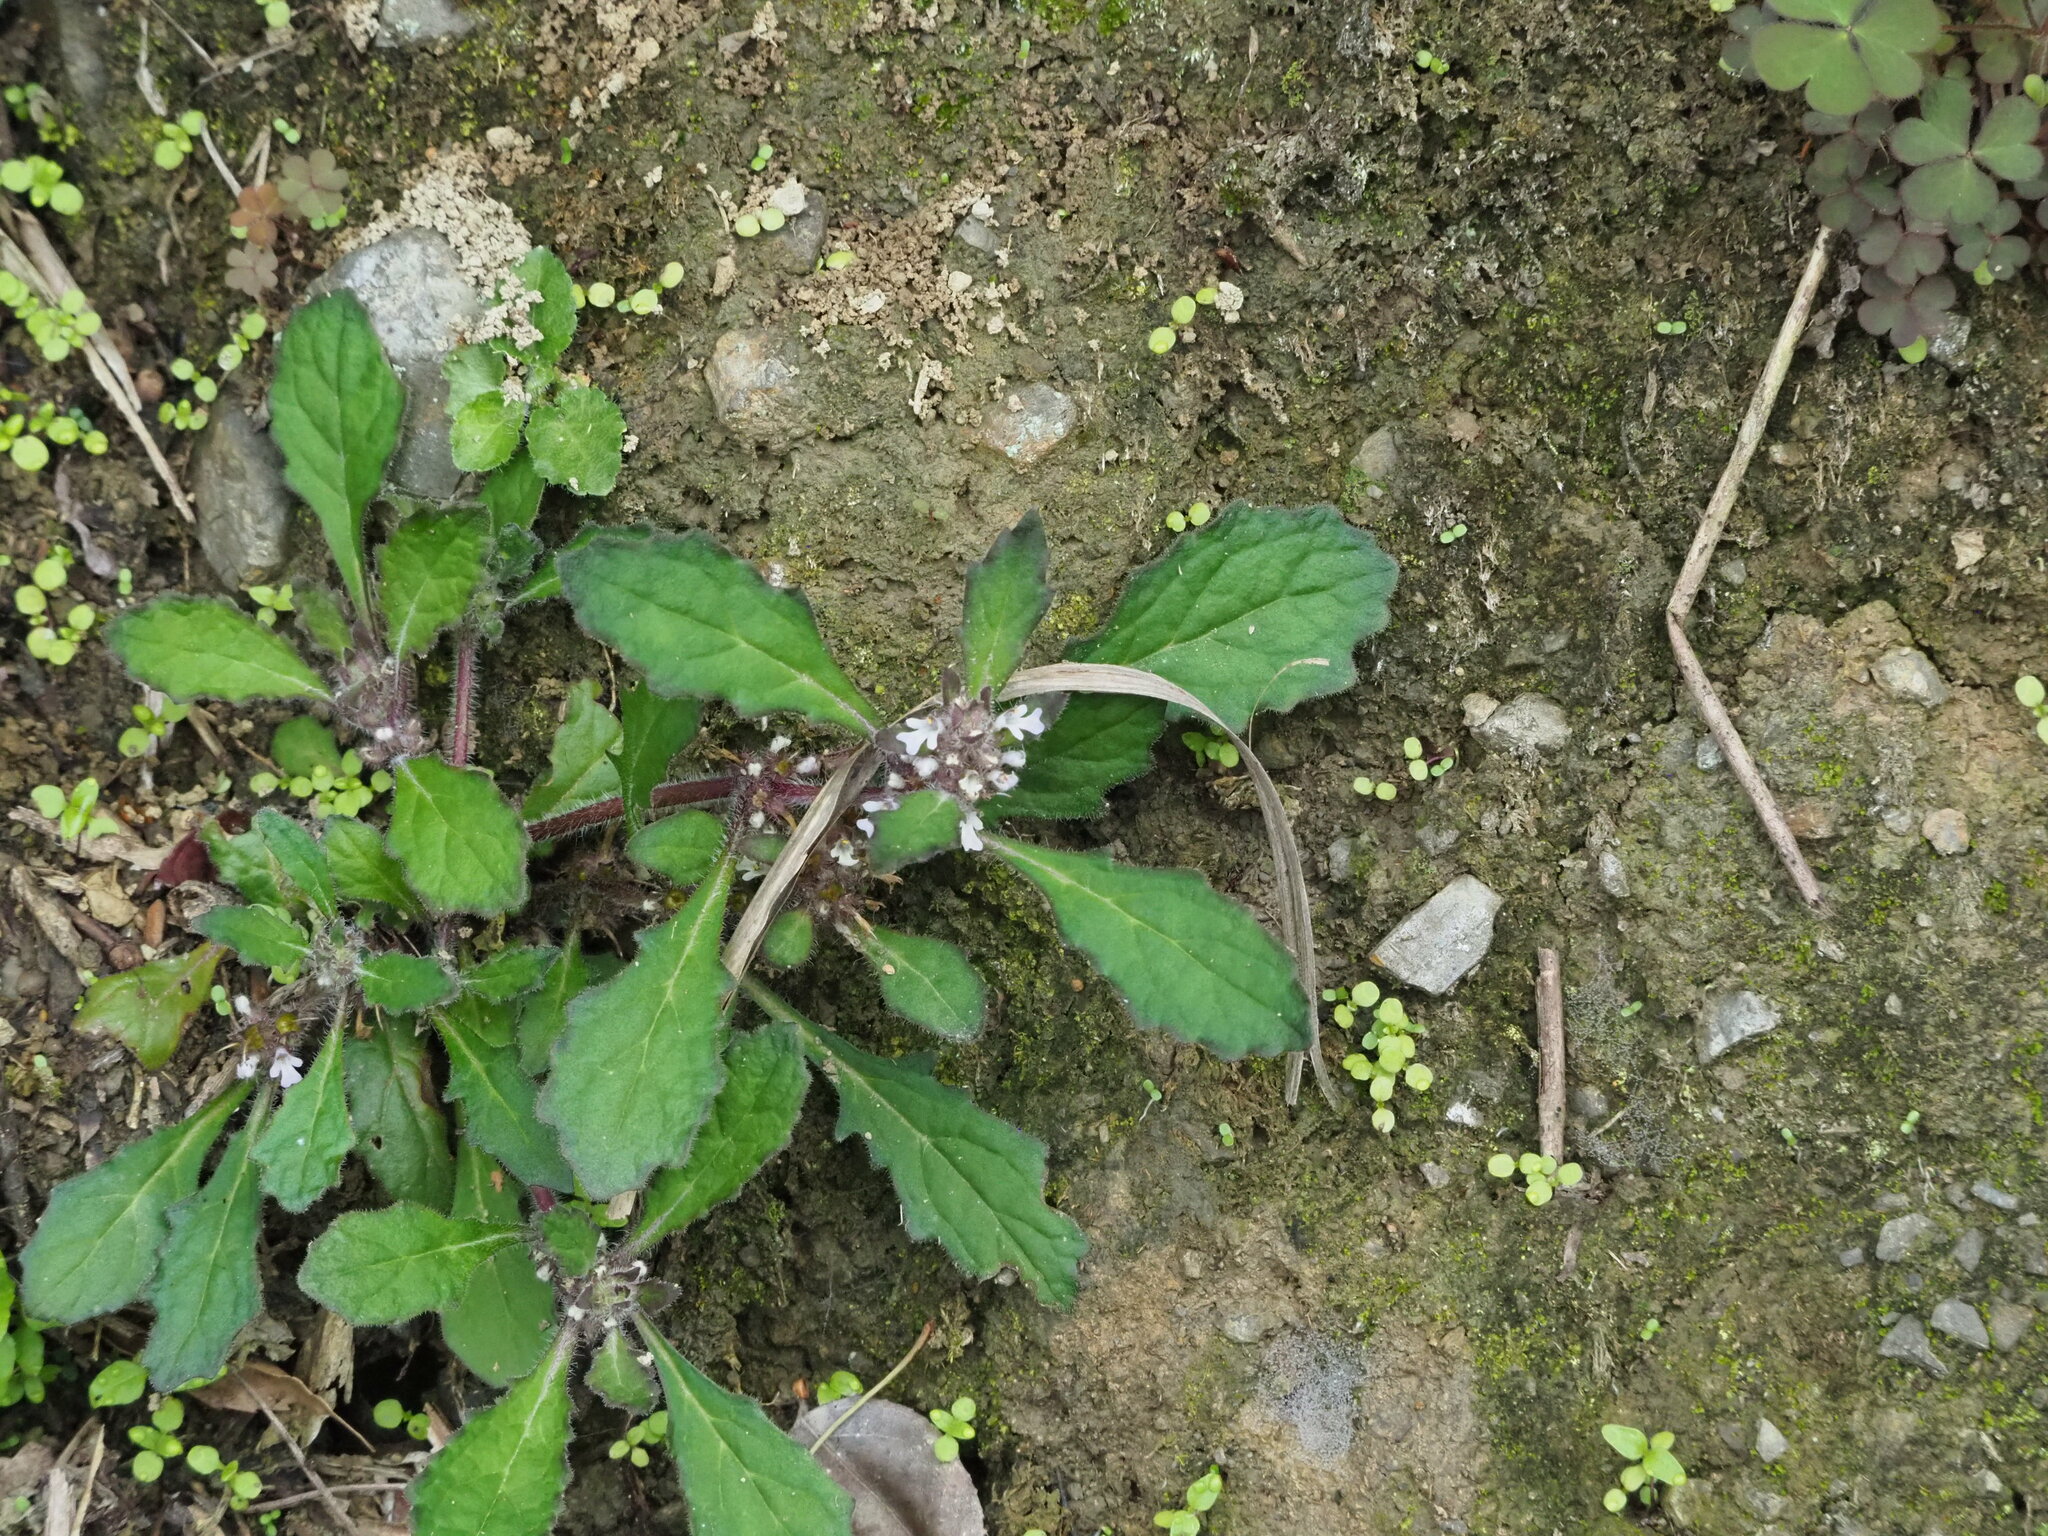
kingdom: Plantae
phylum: Tracheophyta
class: Magnoliopsida
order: Lamiales
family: Lamiaceae
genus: Ajuga
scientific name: Ajuga taiwanensis
